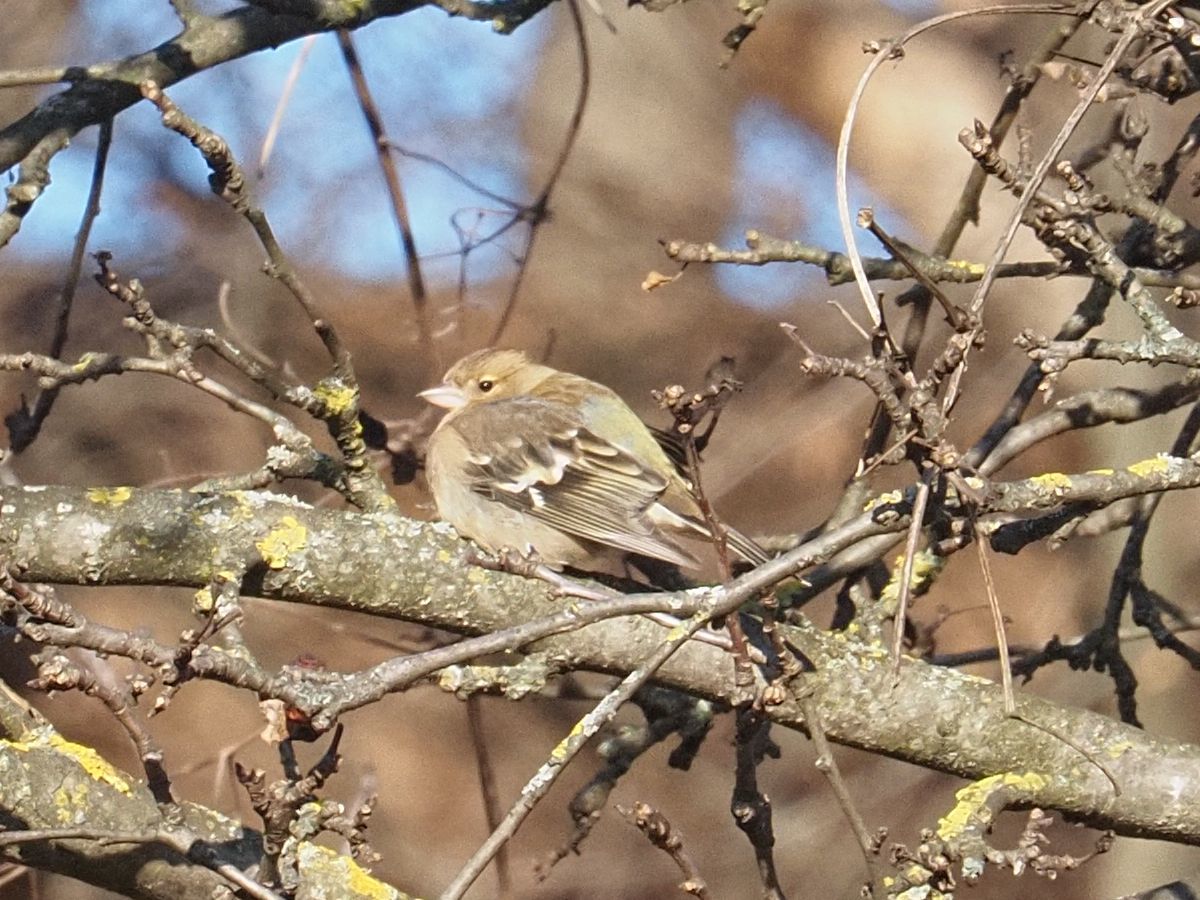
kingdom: Animalia
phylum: Chordata
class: Aves
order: Passeriformes
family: Fringillidae
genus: Fringilla
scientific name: Fringilla coelebs
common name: Common chaffinch
